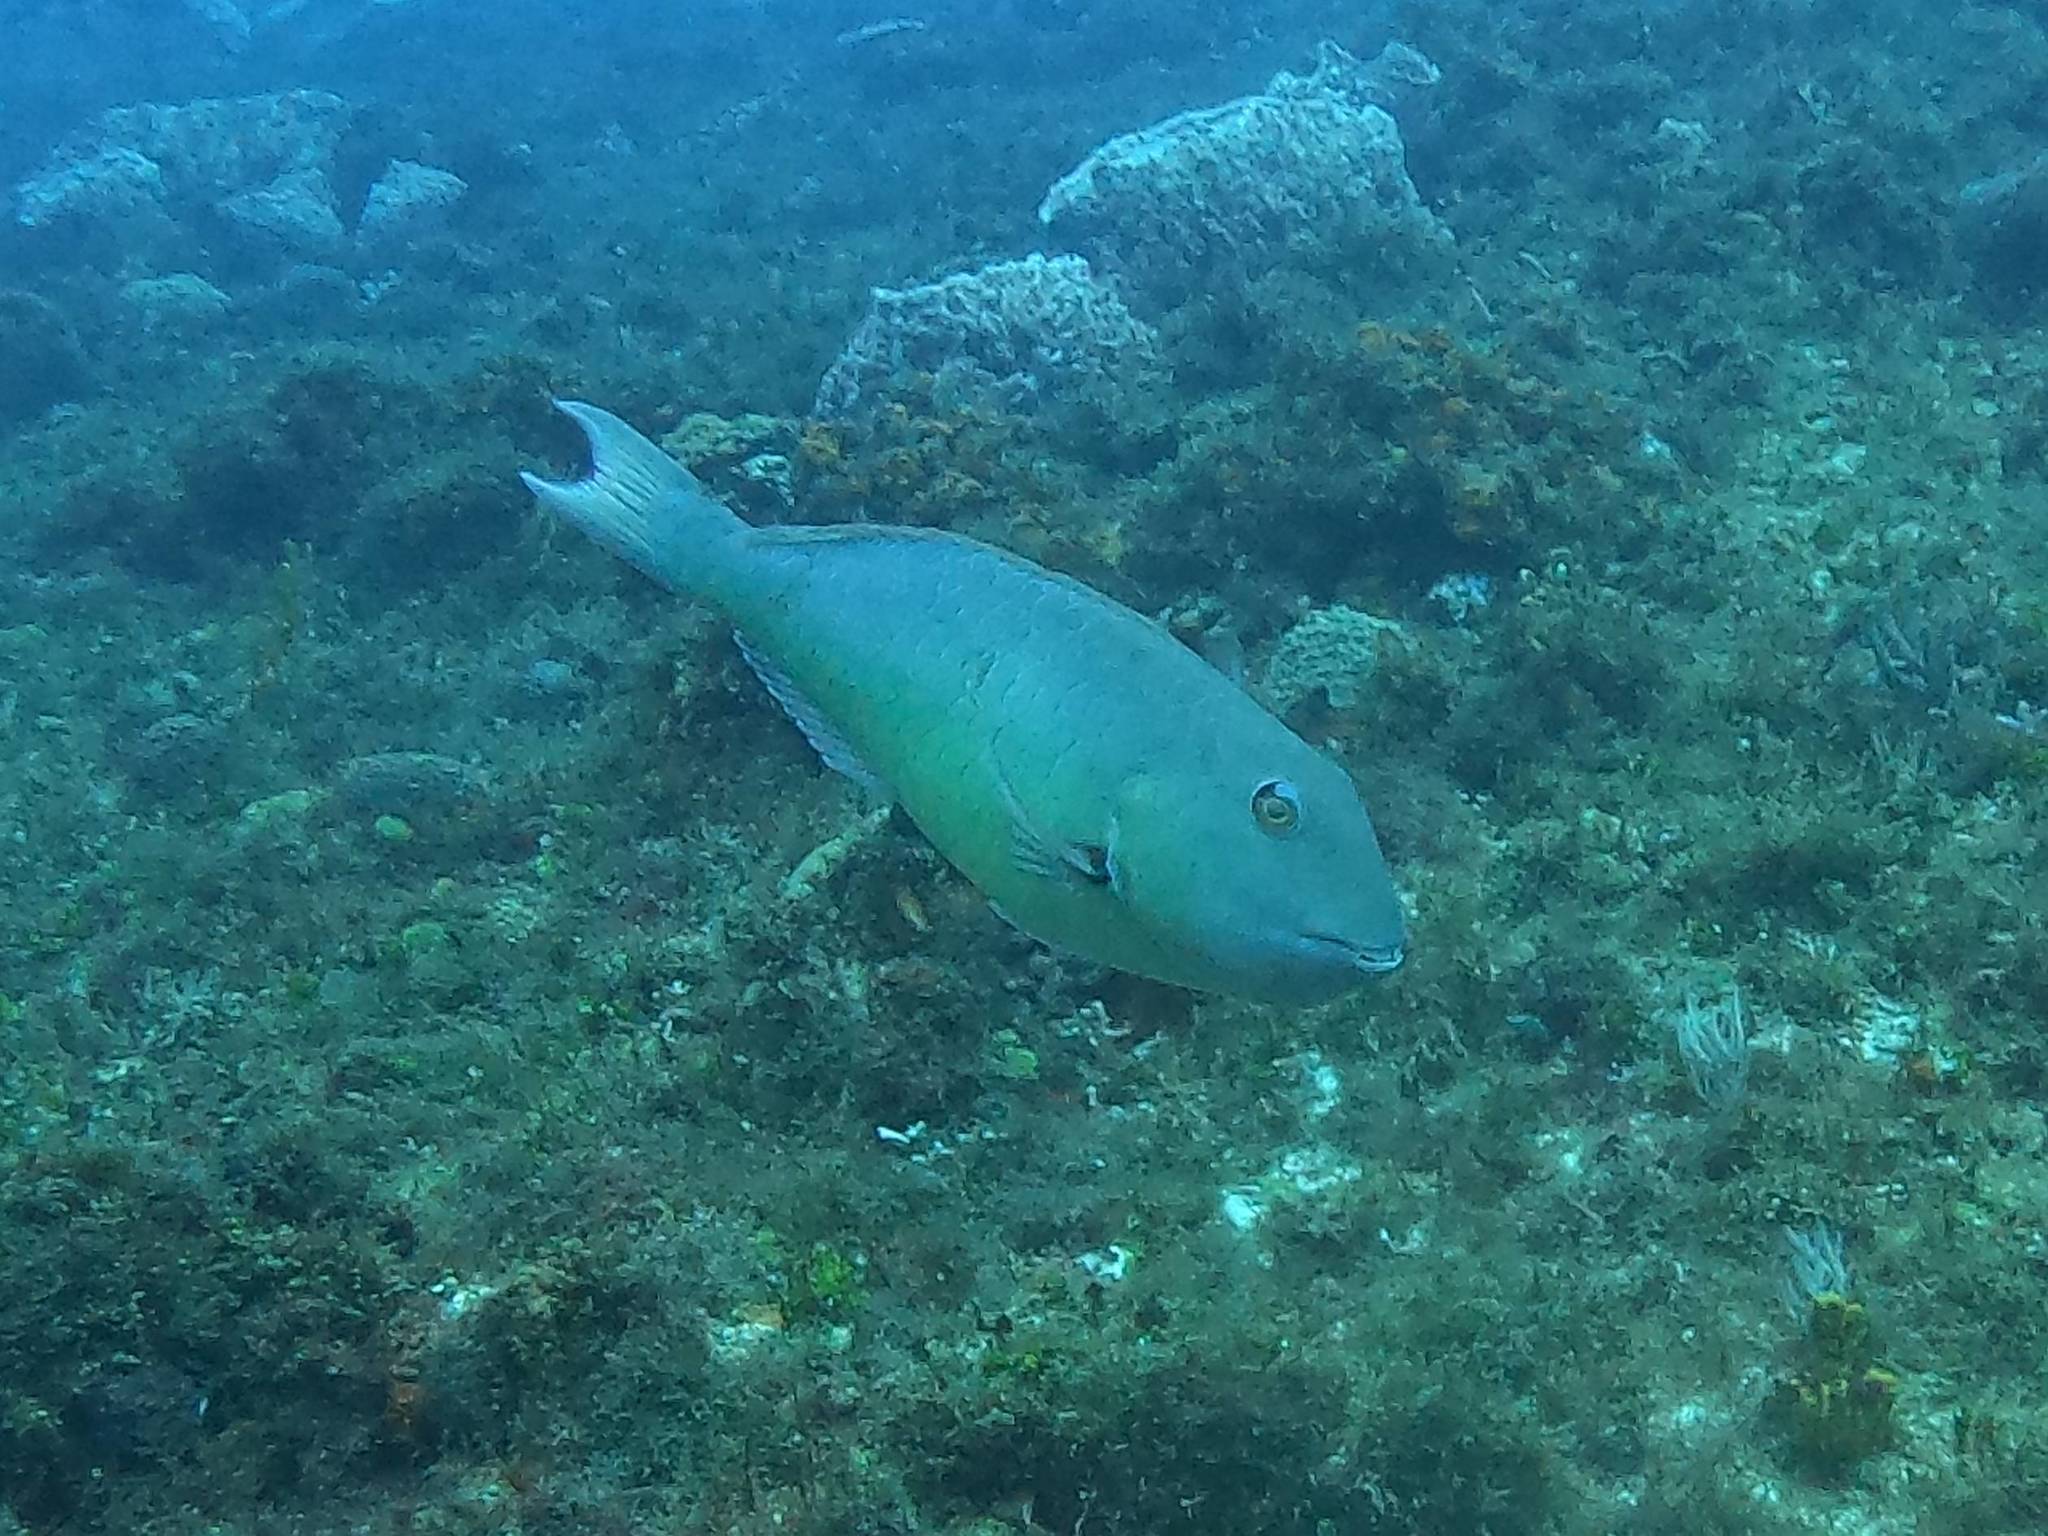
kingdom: Animalia
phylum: Chordata
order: Perciformes
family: Scaridae
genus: Sparisoma
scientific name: Sparisoma rubripinne
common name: Redfin parrotfish
